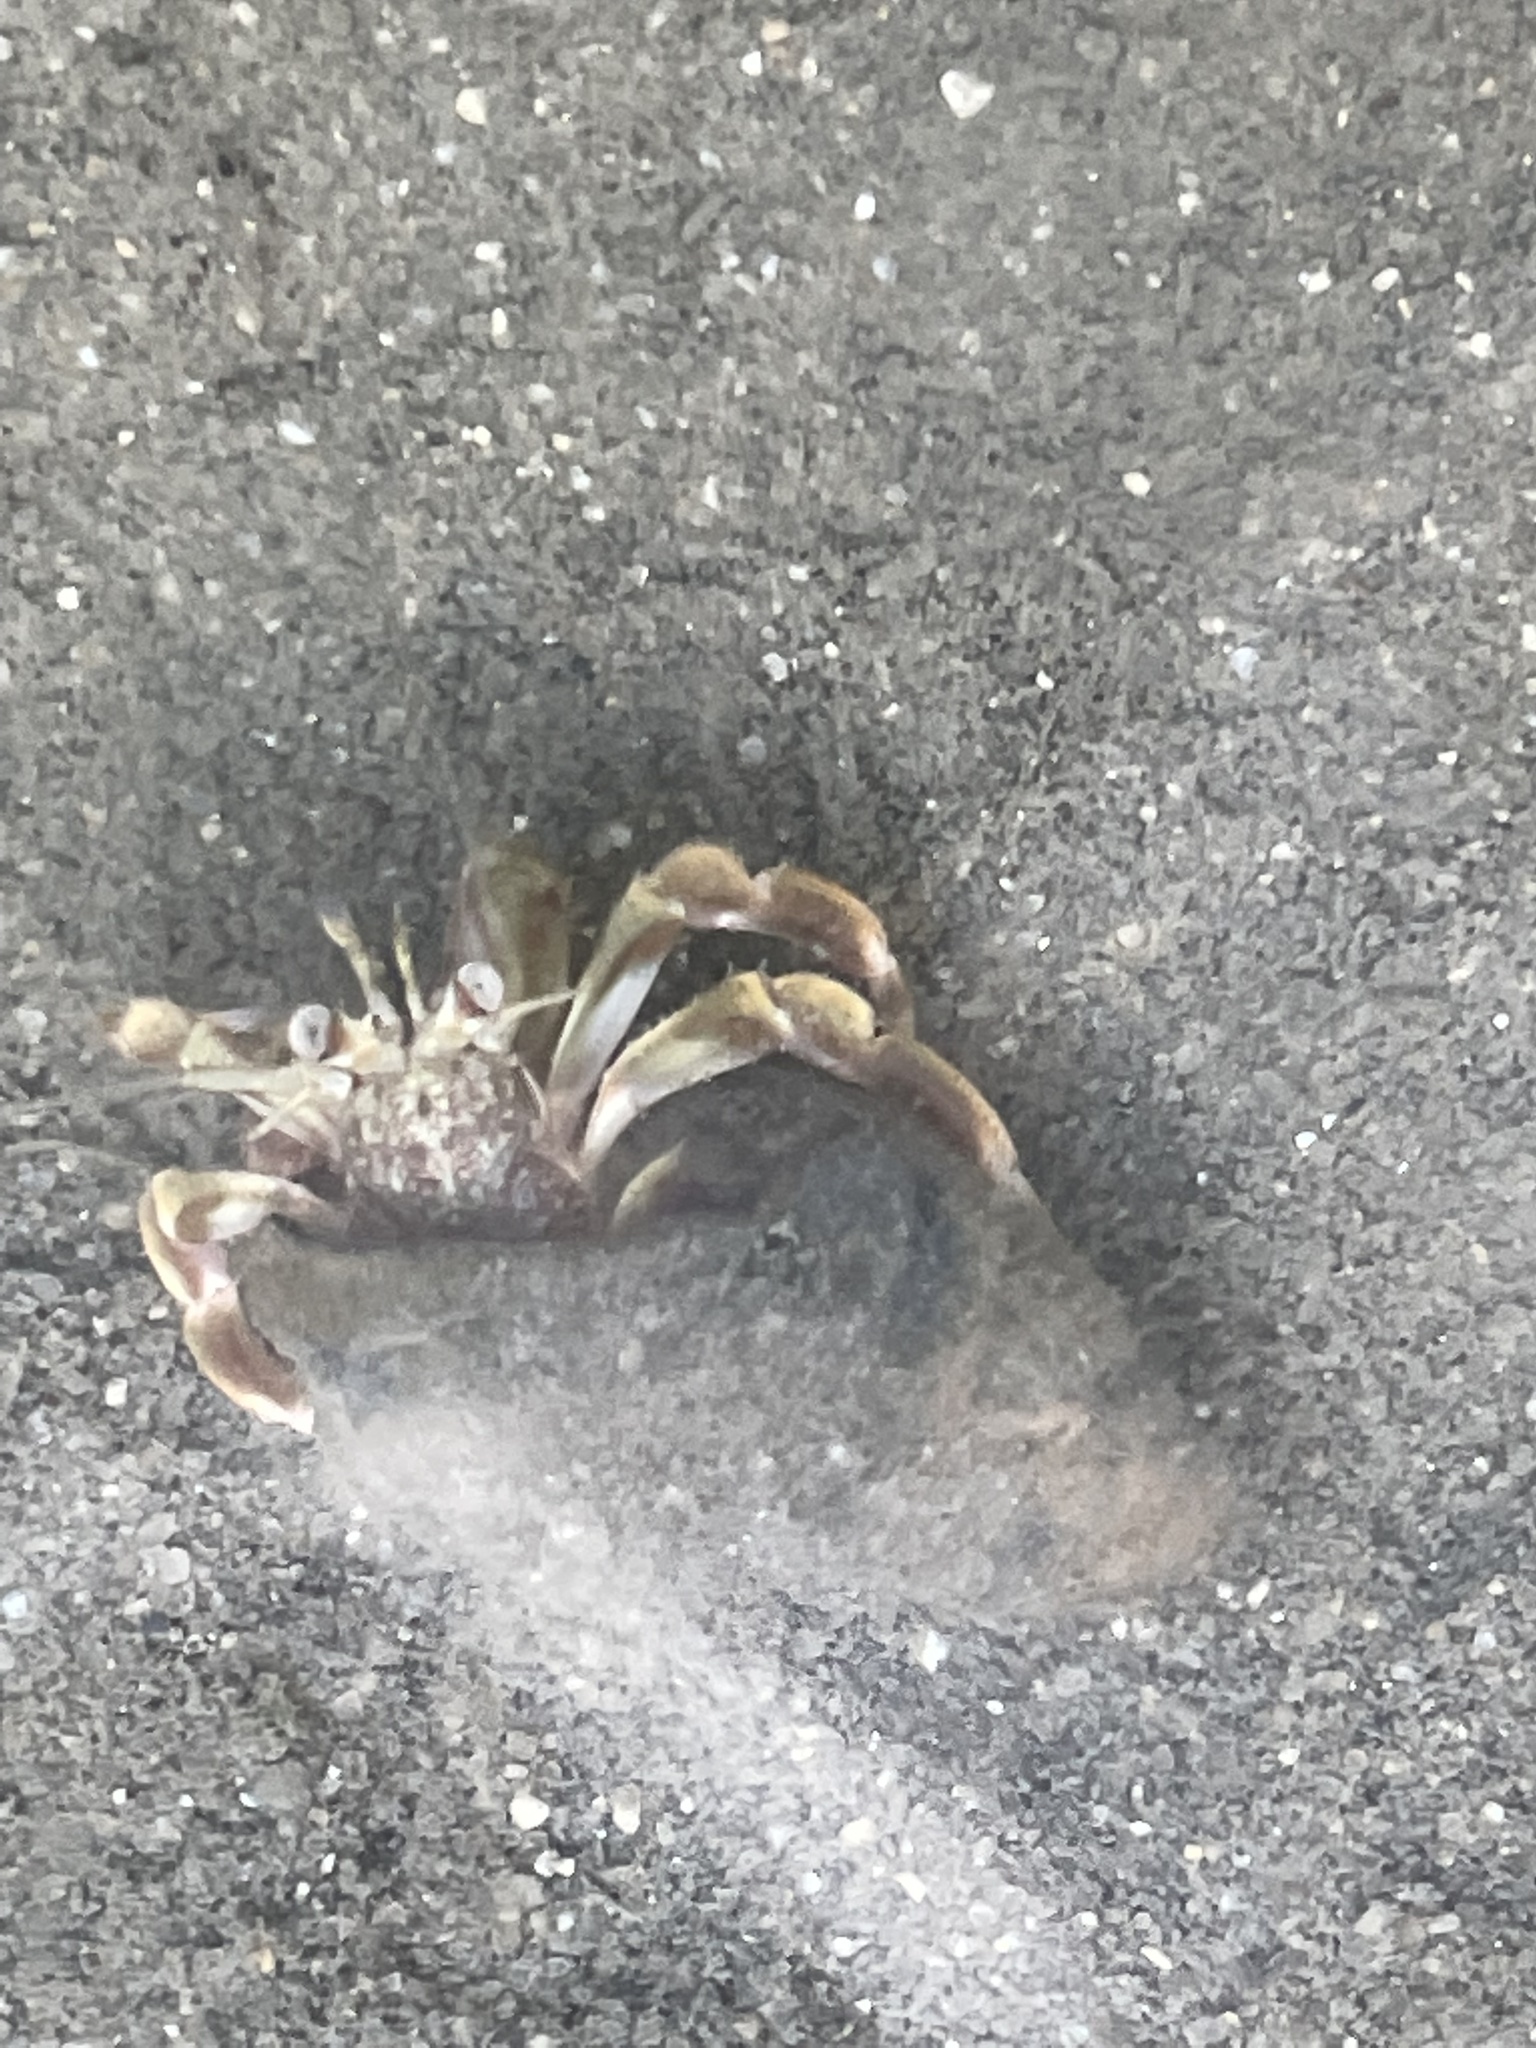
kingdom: Animalia
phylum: Arthropoda
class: Malacostraca
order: Decapoda
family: Paguridae
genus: Pagurus
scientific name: Pagurus longicarpus
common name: Long-armed hermit crab
